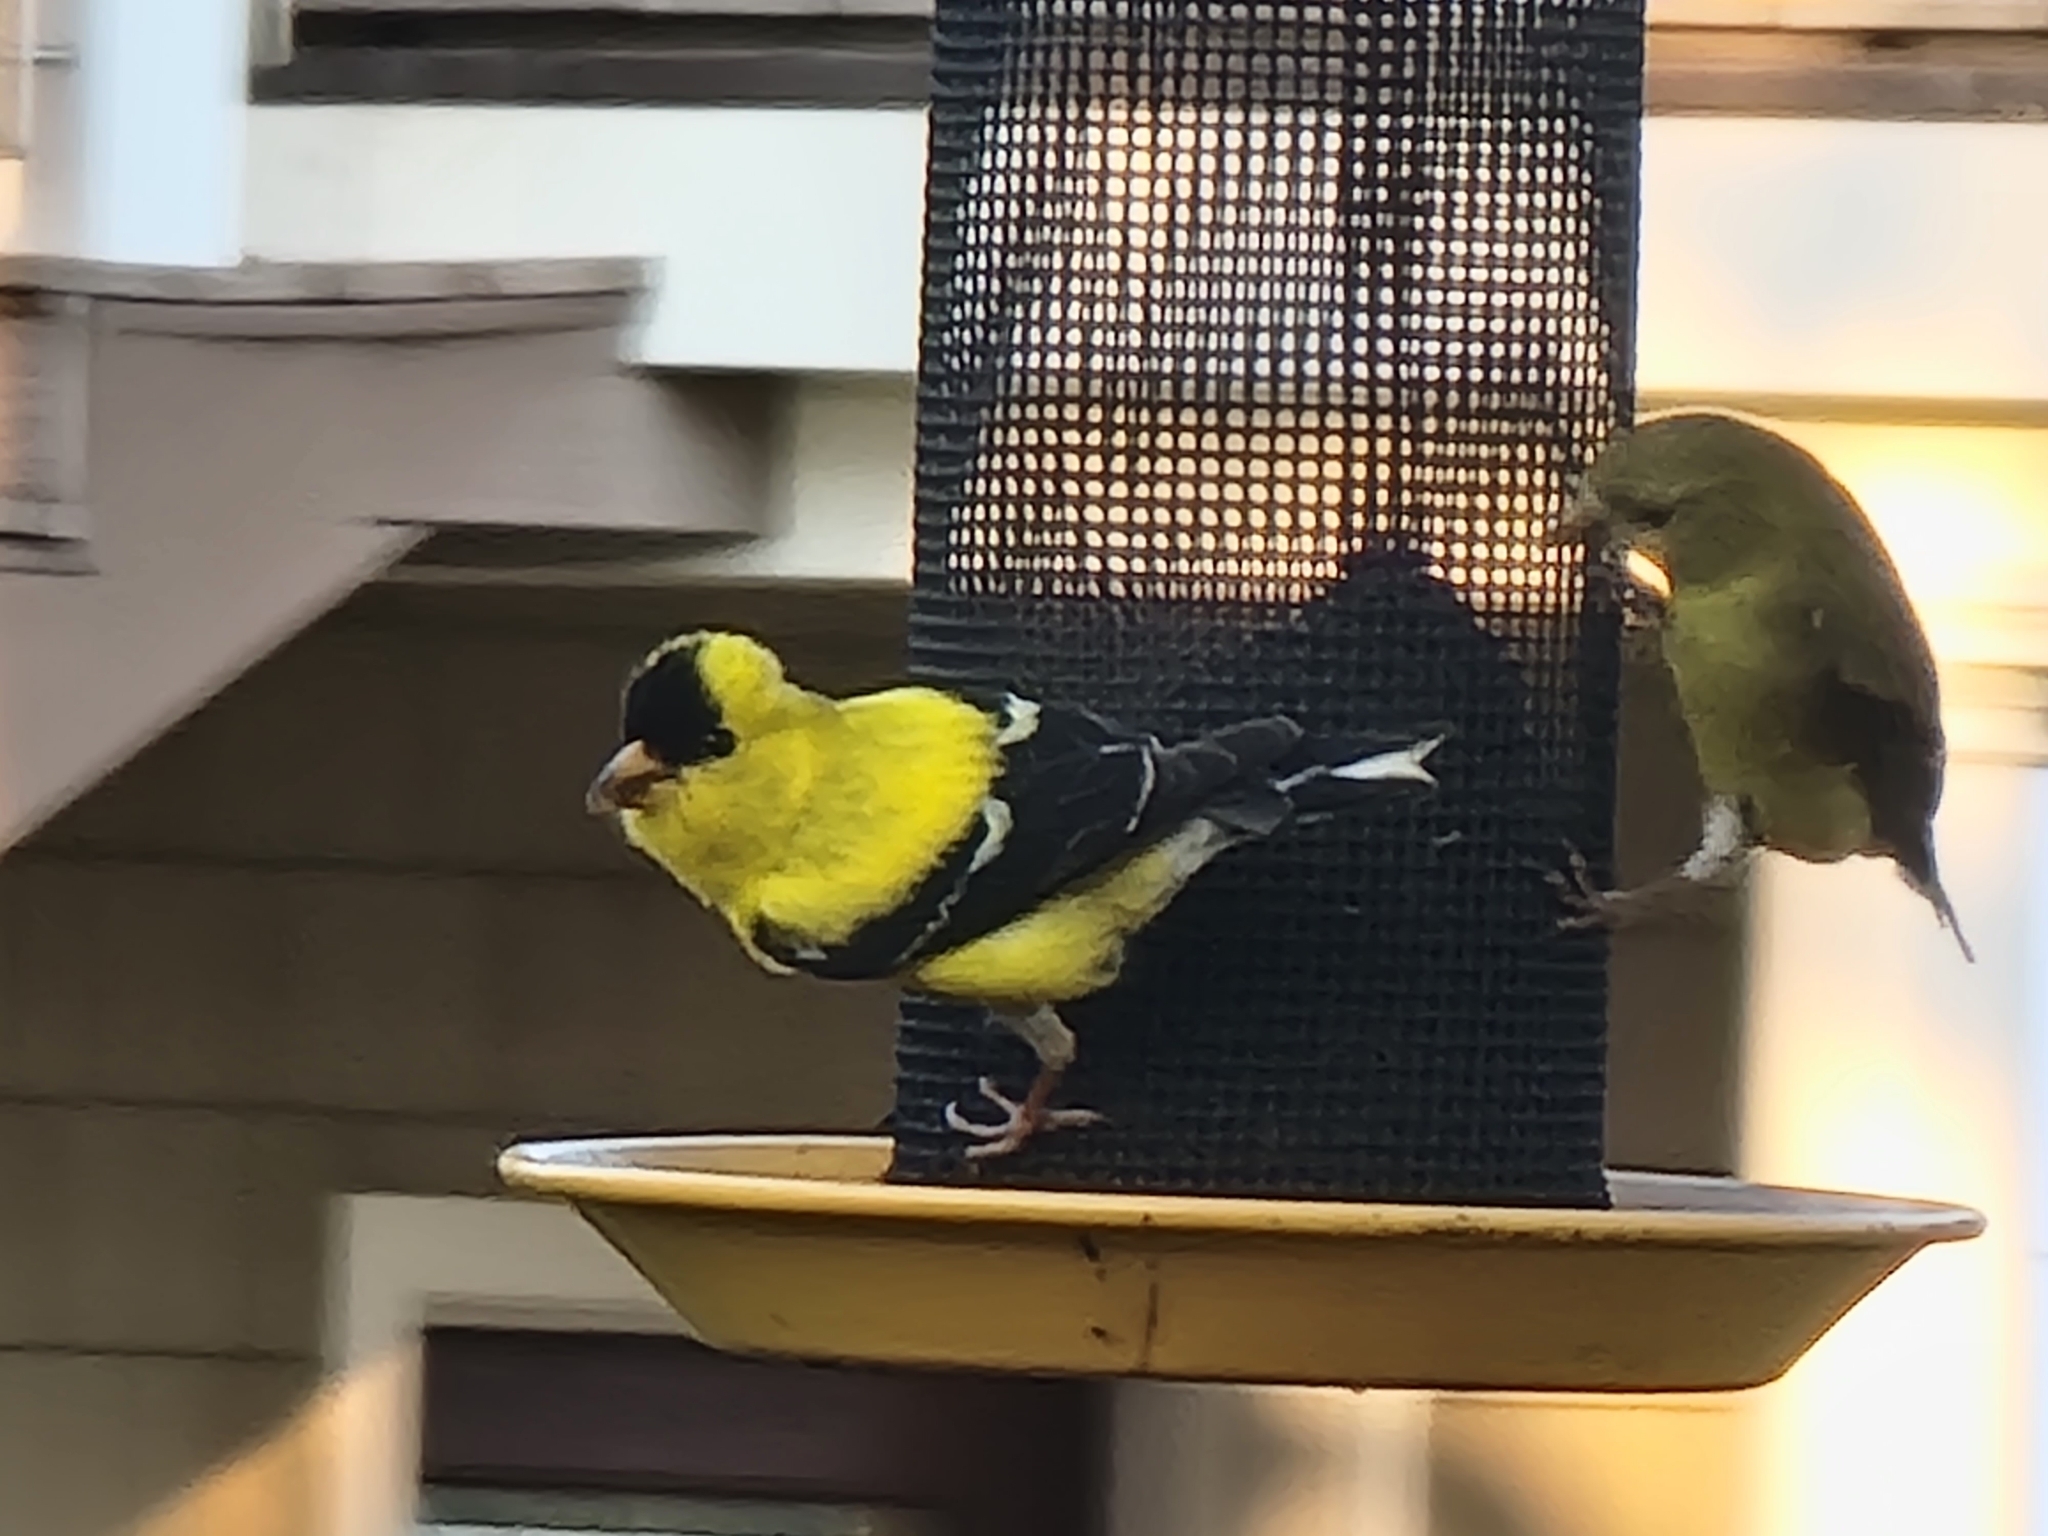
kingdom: Animalia
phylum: Chordata
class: Aves
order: Passeriformes
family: Fringillidae
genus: Spinus
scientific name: Spinus tristis
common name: American goldfinch
